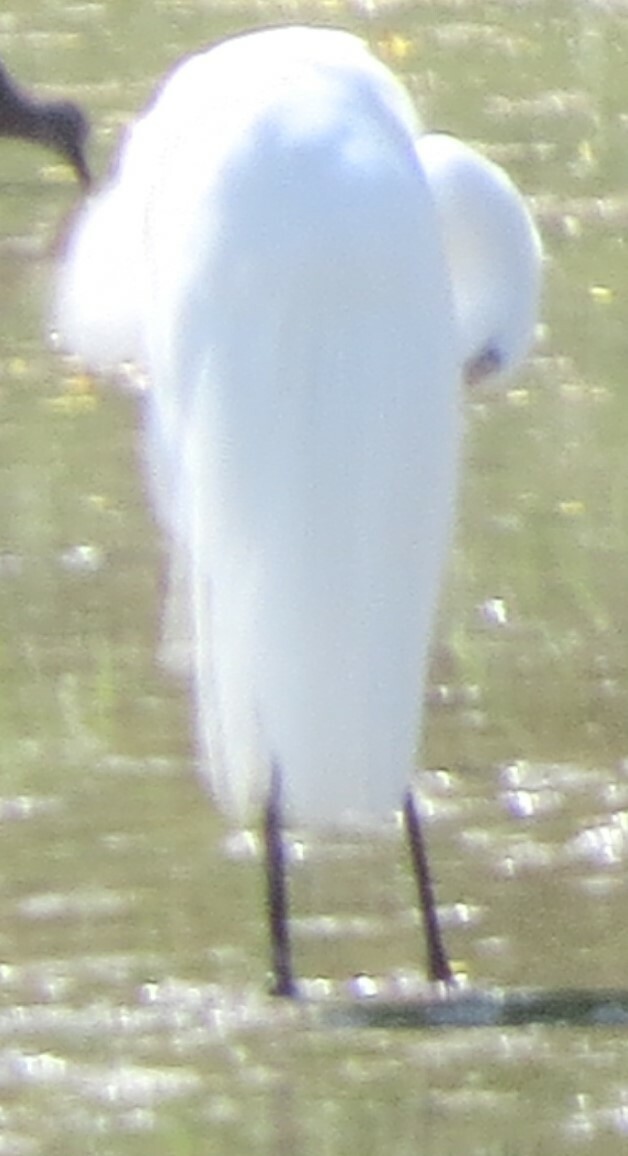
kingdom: Animalia
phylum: Chordata
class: Aves
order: Pelecaniformes
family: Ardeidae
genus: Ardea
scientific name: Ardea alba
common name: Great egret
